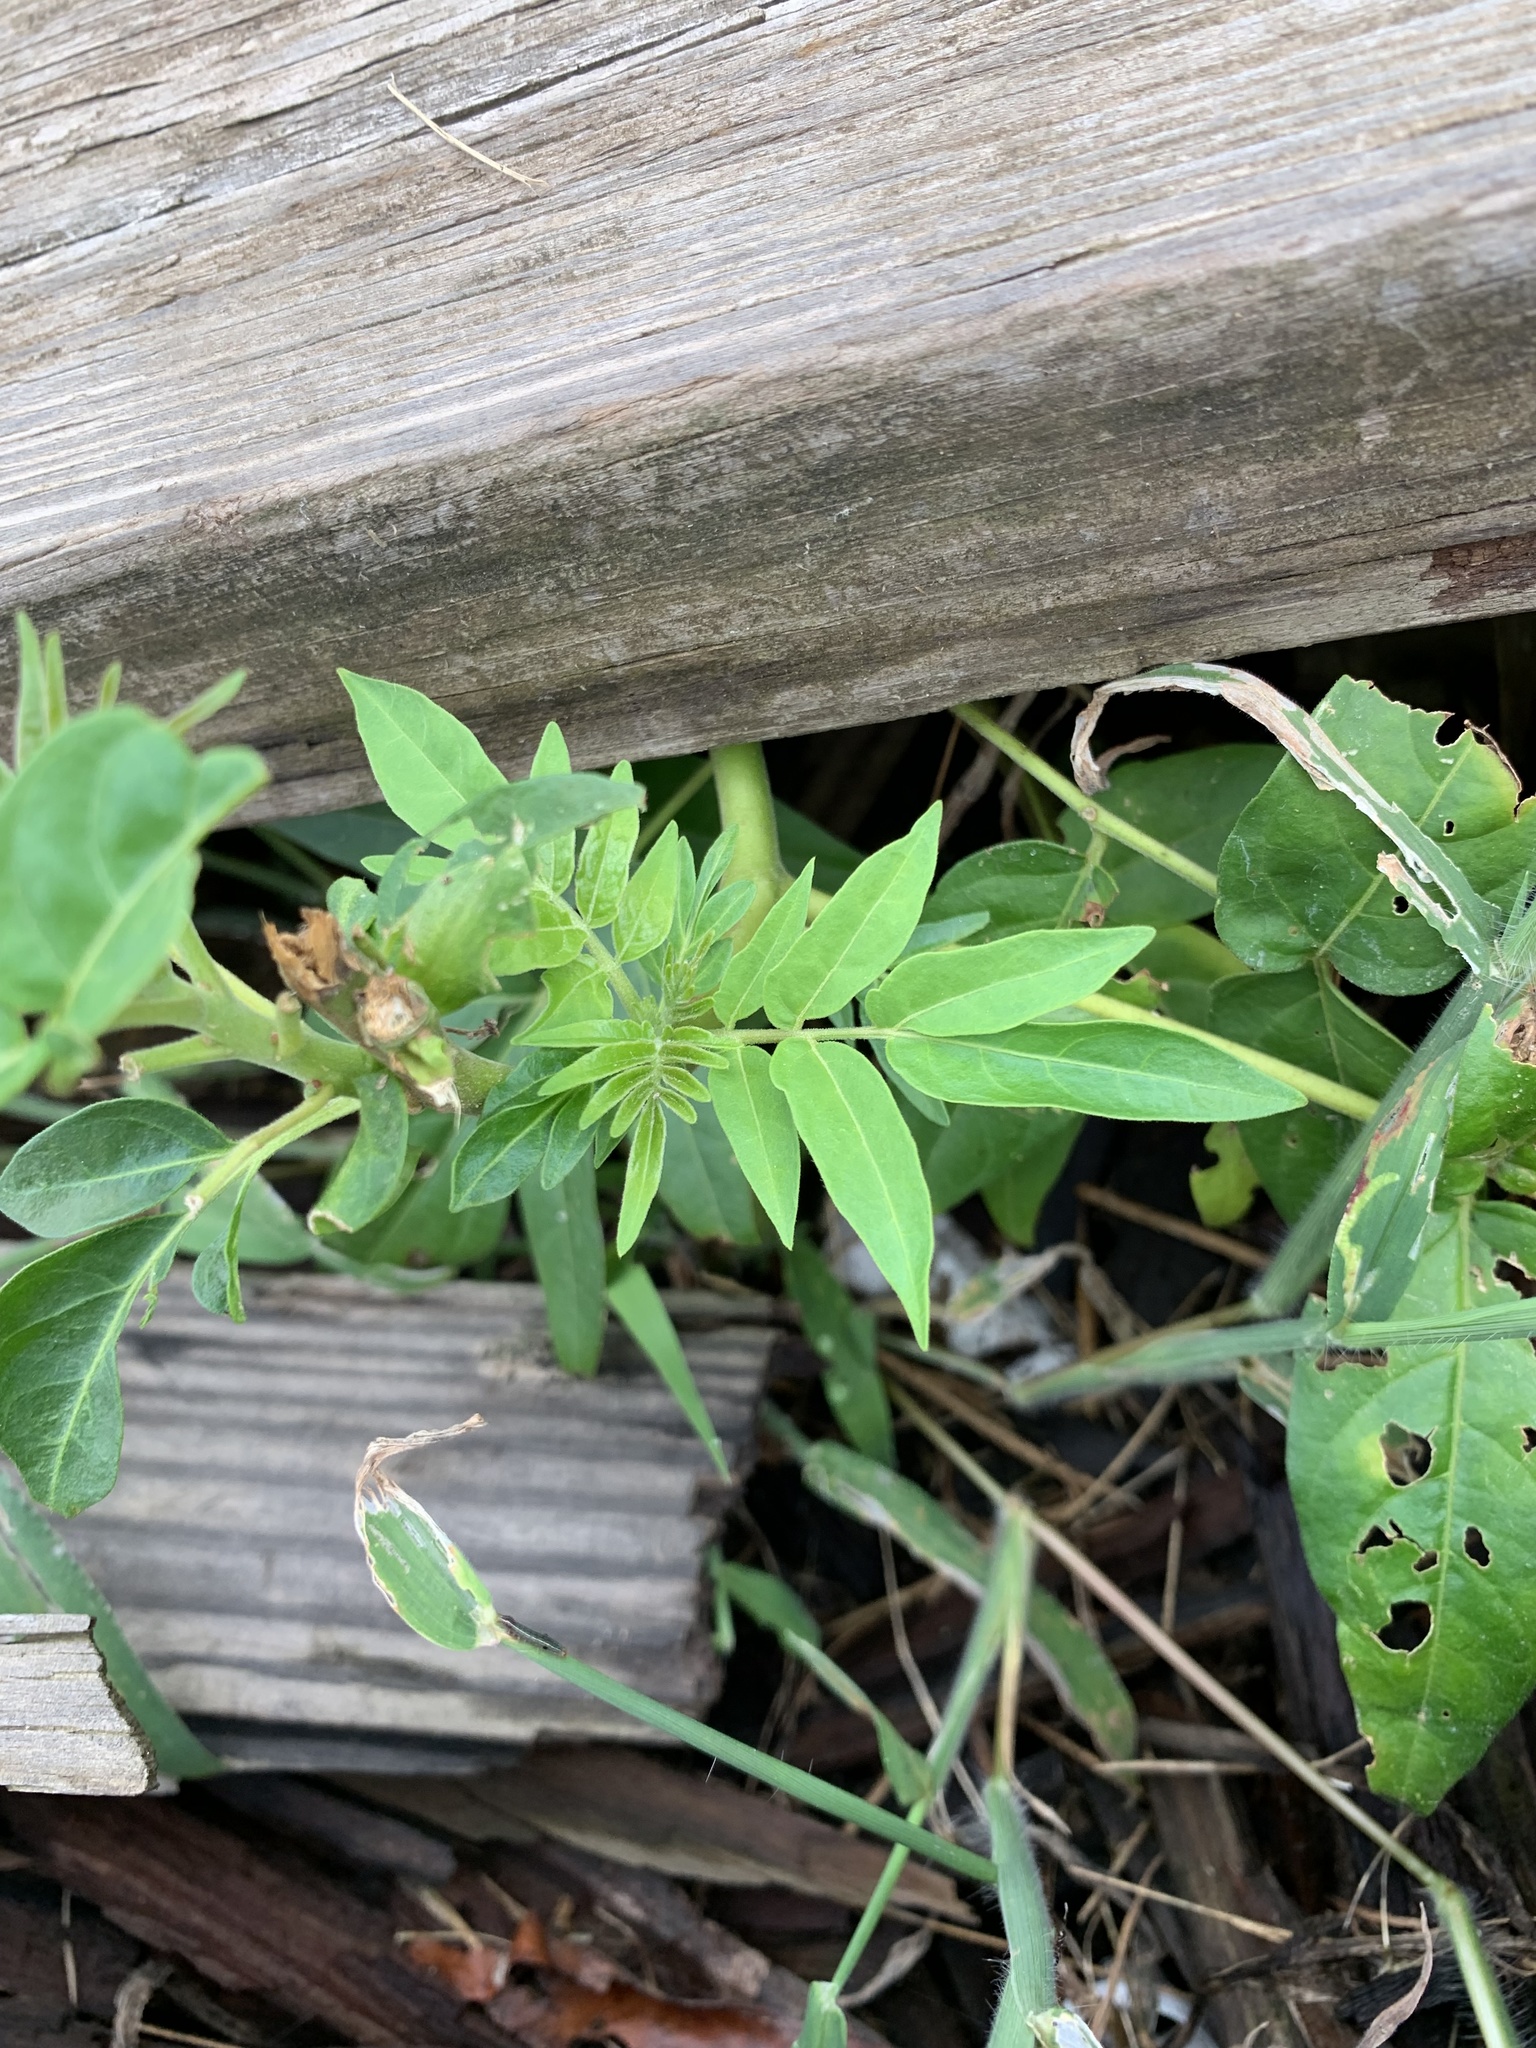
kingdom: Plantae
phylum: Tracheophyta
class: Magnoliopsida
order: Sapindales
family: Simaroubaceae
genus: Ailanthus
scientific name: Ailanthus altissima
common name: Tree-of-heaven
